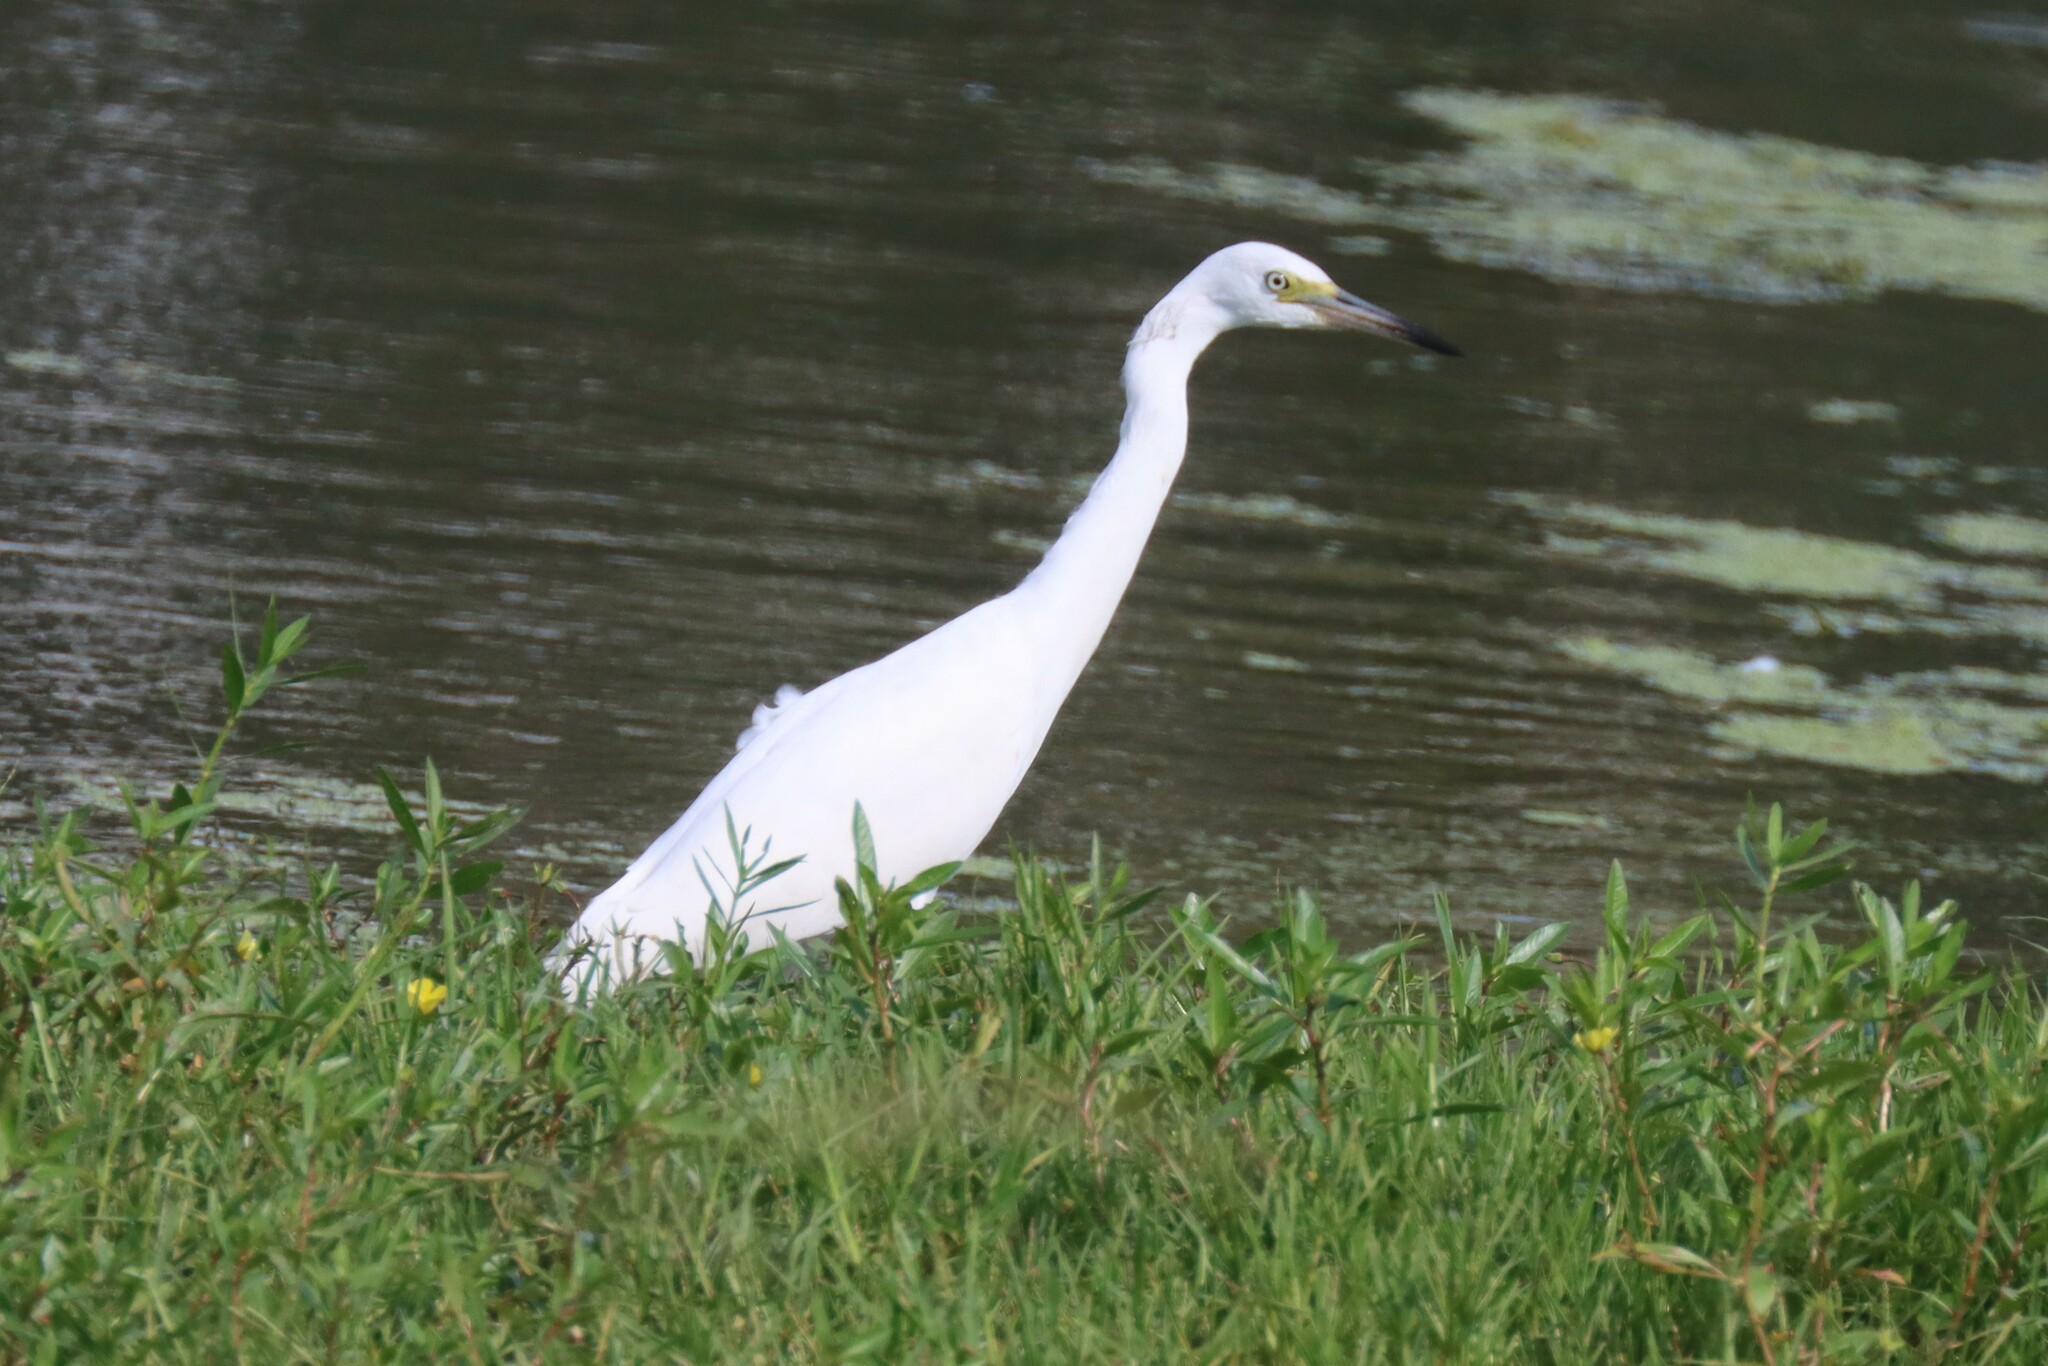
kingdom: Animalia
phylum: Chordata
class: Aves
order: Pelecaniformes
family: Ardeidae
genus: Egretta
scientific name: Egretta caerulea
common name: Little blue heron
